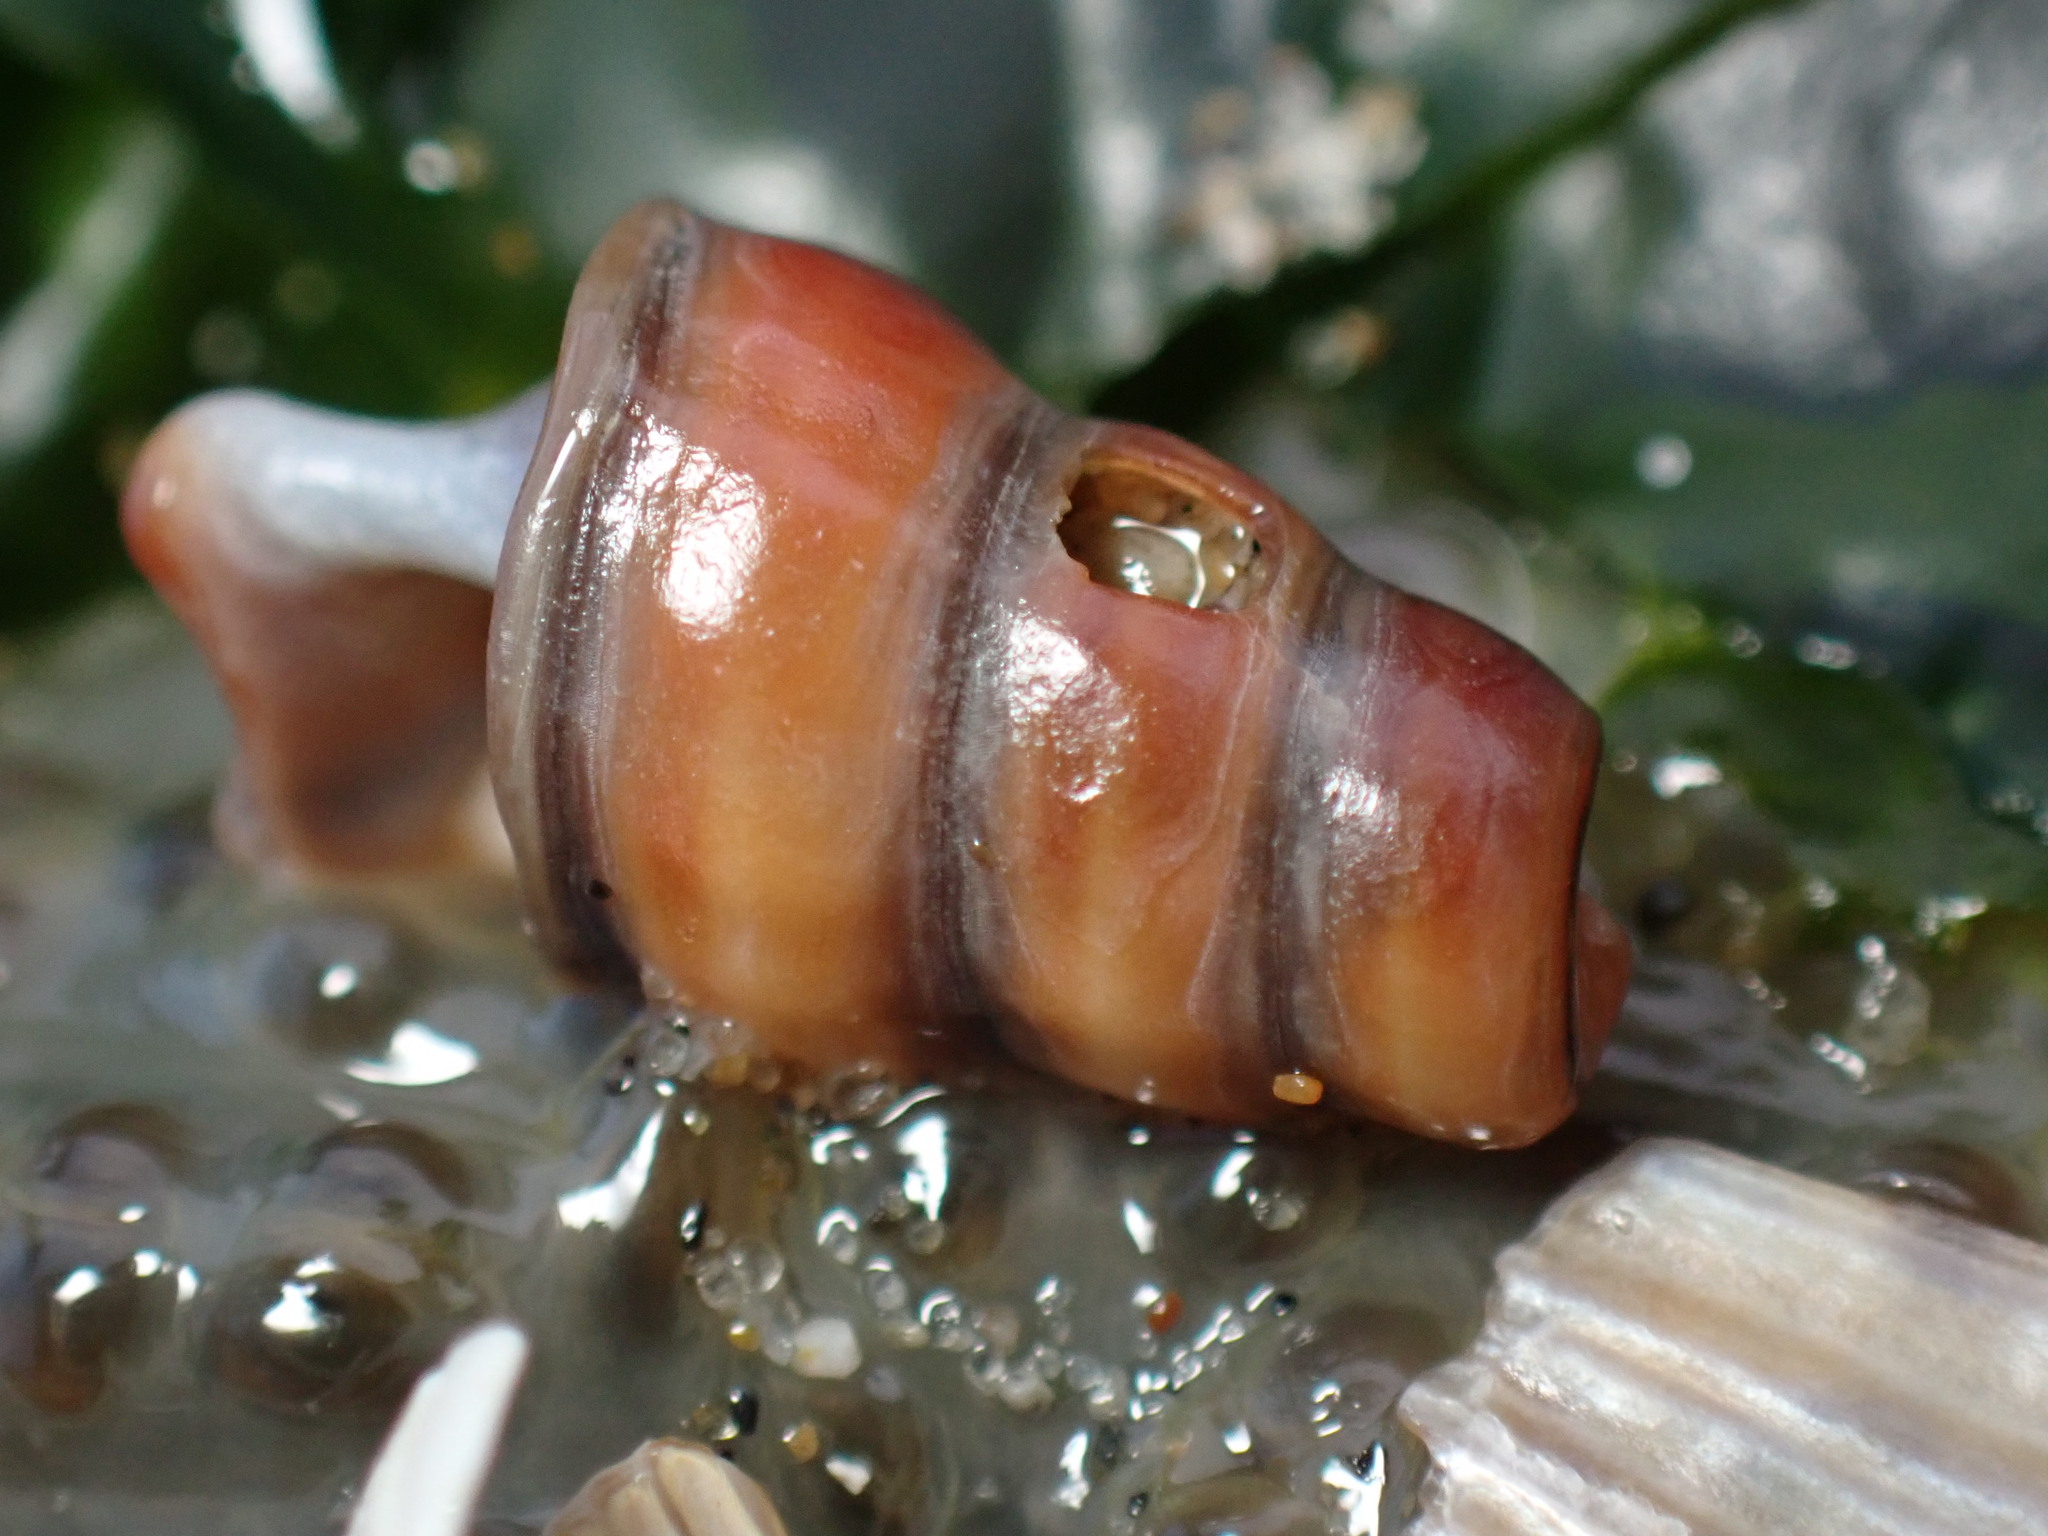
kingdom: Animalia
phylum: Mollusca
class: Gastropoda
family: Potamididae
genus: Cerithideopsis
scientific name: Cerithideopsis californica
